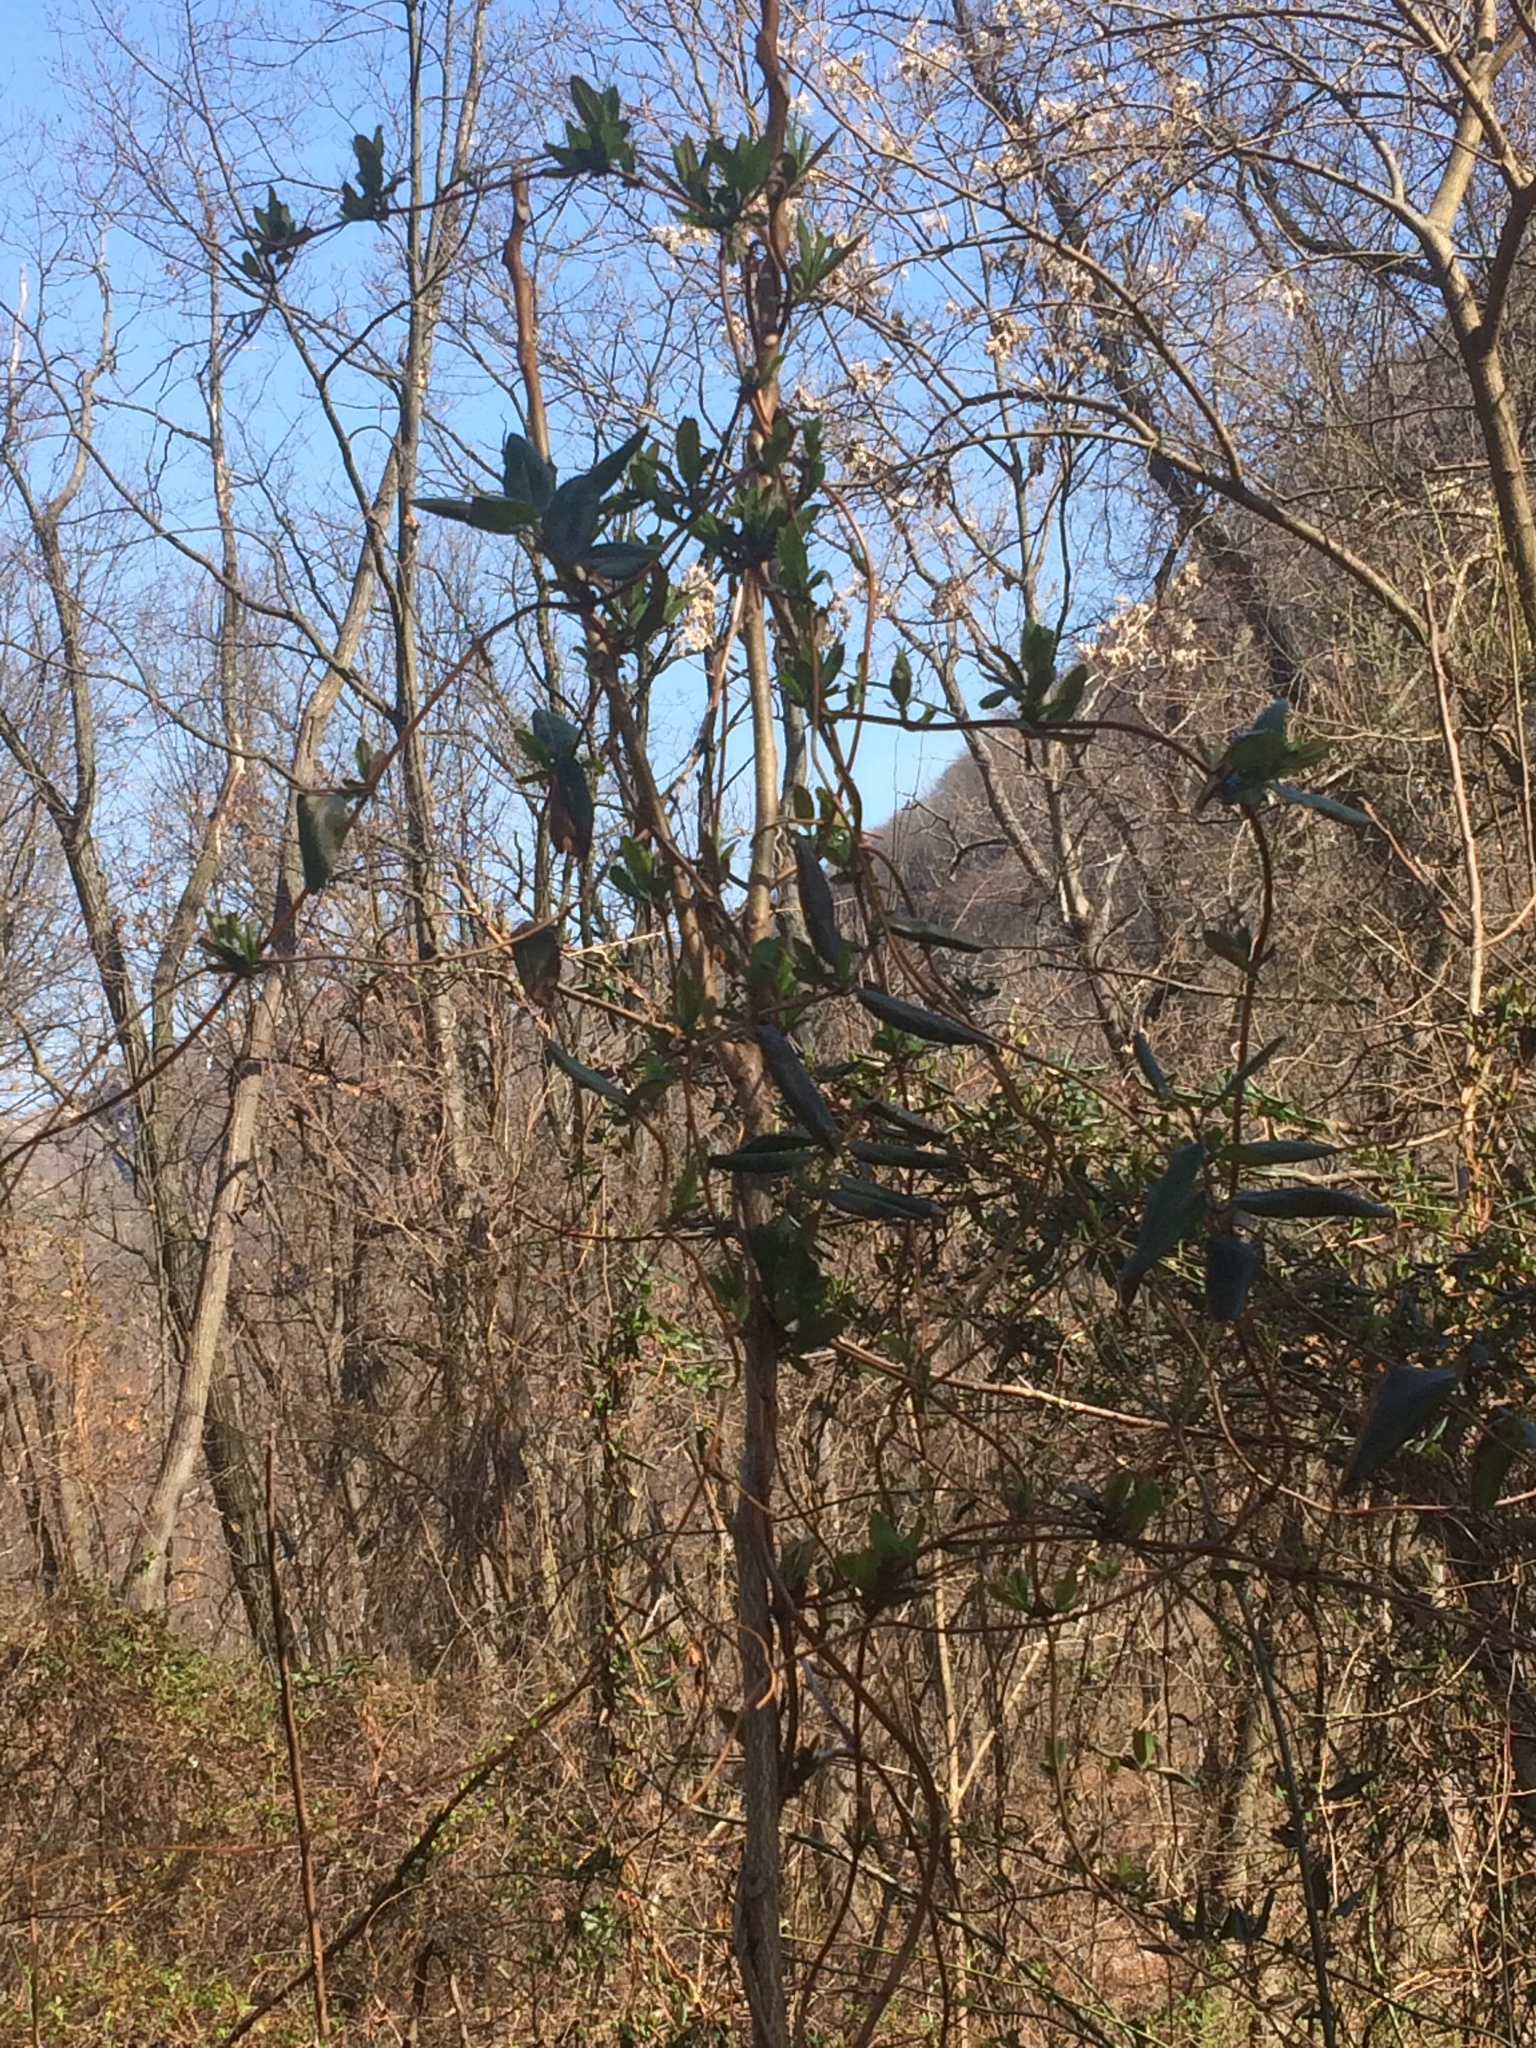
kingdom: Plantae
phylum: Tracheophyta
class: Magnoliopsida
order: Dipsacales
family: Caprifoliaceae
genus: Lonicera
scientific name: Lonicera japonica
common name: Japanese honeysuckle
